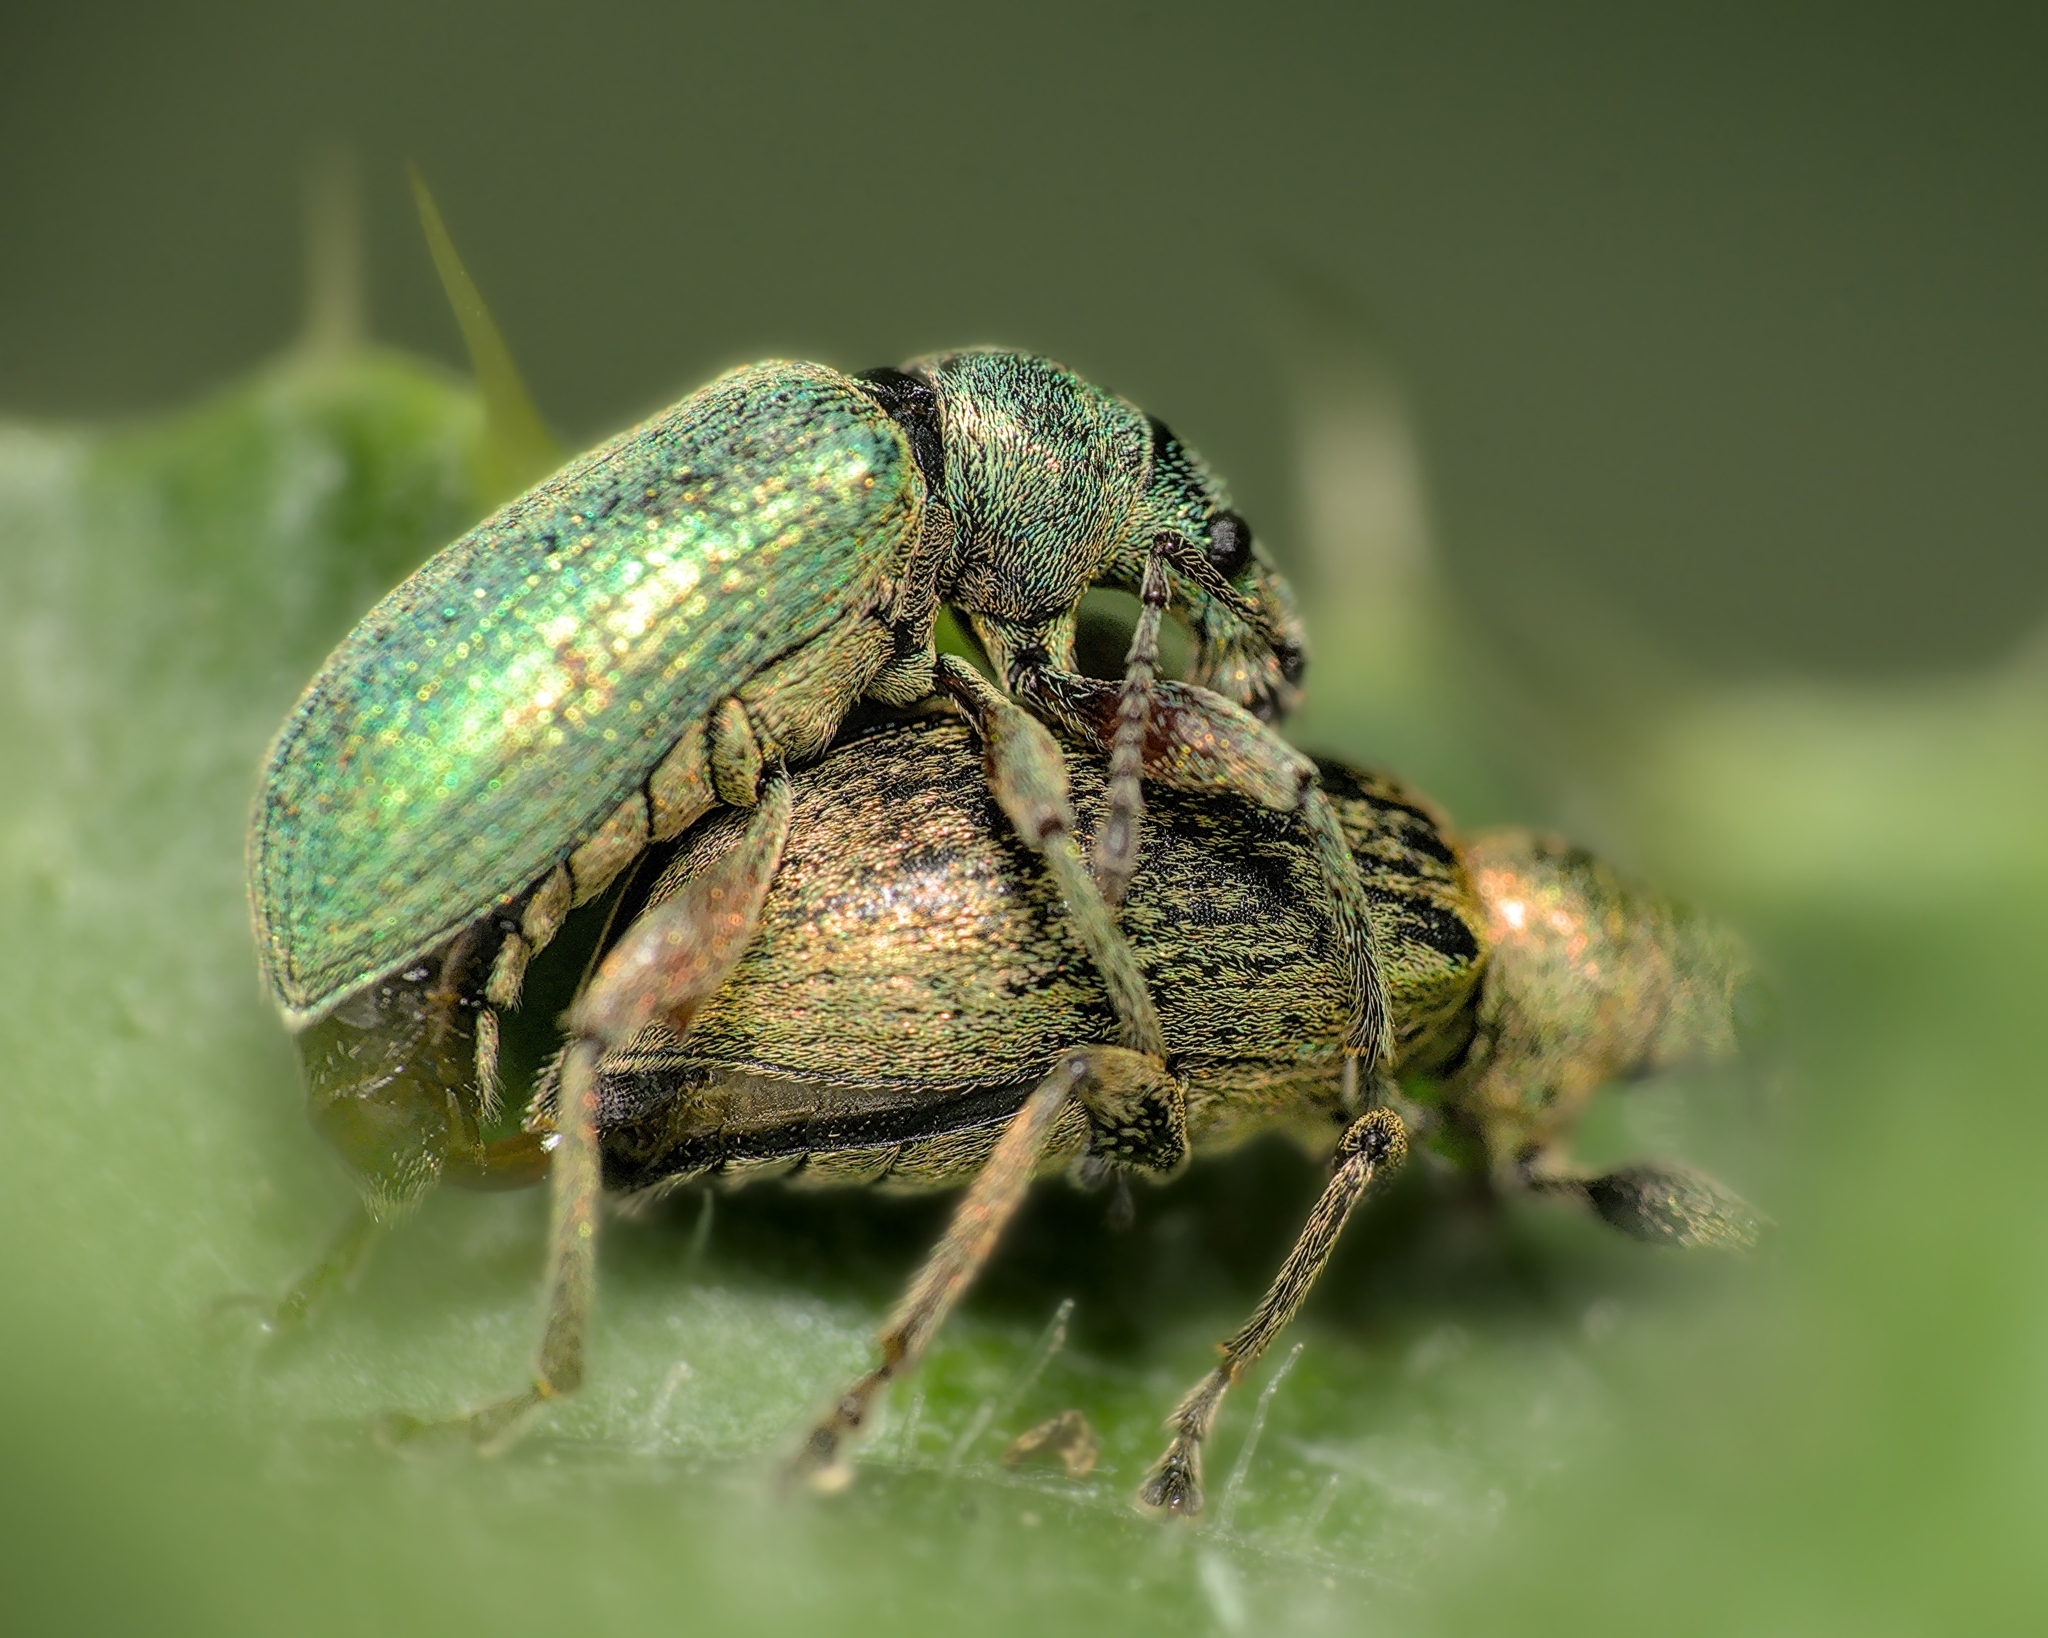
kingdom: Animalia
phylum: Arthropoda
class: Insecta
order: Coleoptera
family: Curculionidae
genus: Phyllobius
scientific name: Phyllobius pomaceus
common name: Green nettle weevil
